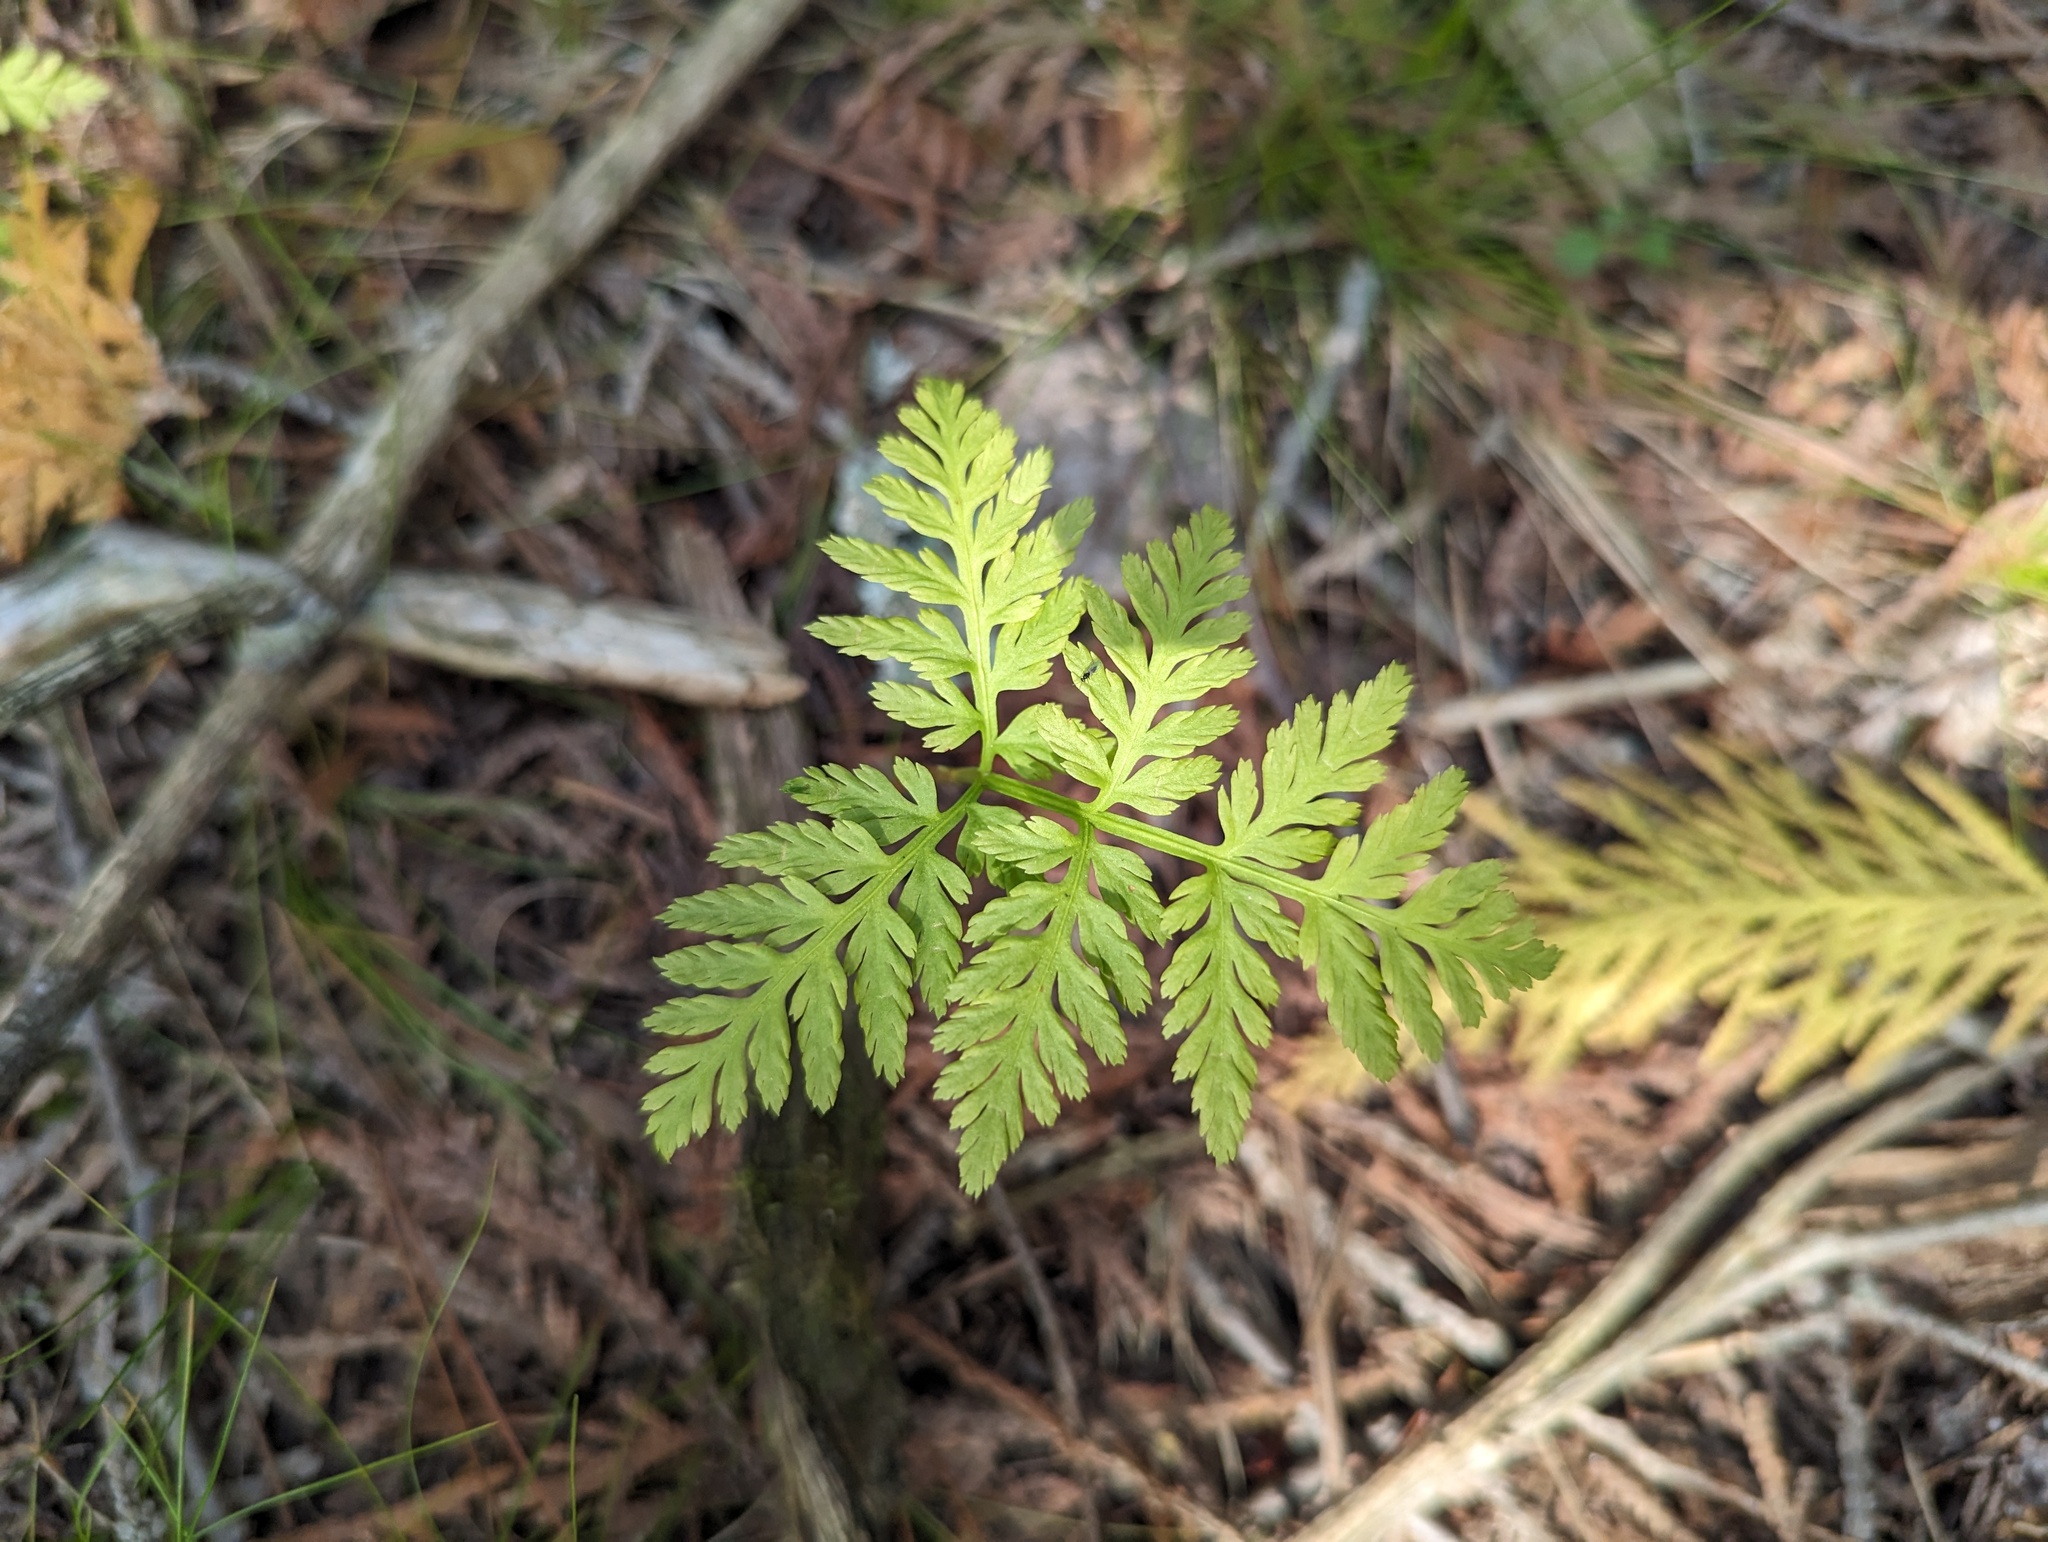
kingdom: Plantae
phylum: Tracheophyta
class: Polypodiopsida
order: Ophioglossales
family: Ophioglossaceae
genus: Botrypus
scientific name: Botrypus virginianus
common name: Common grapefern
